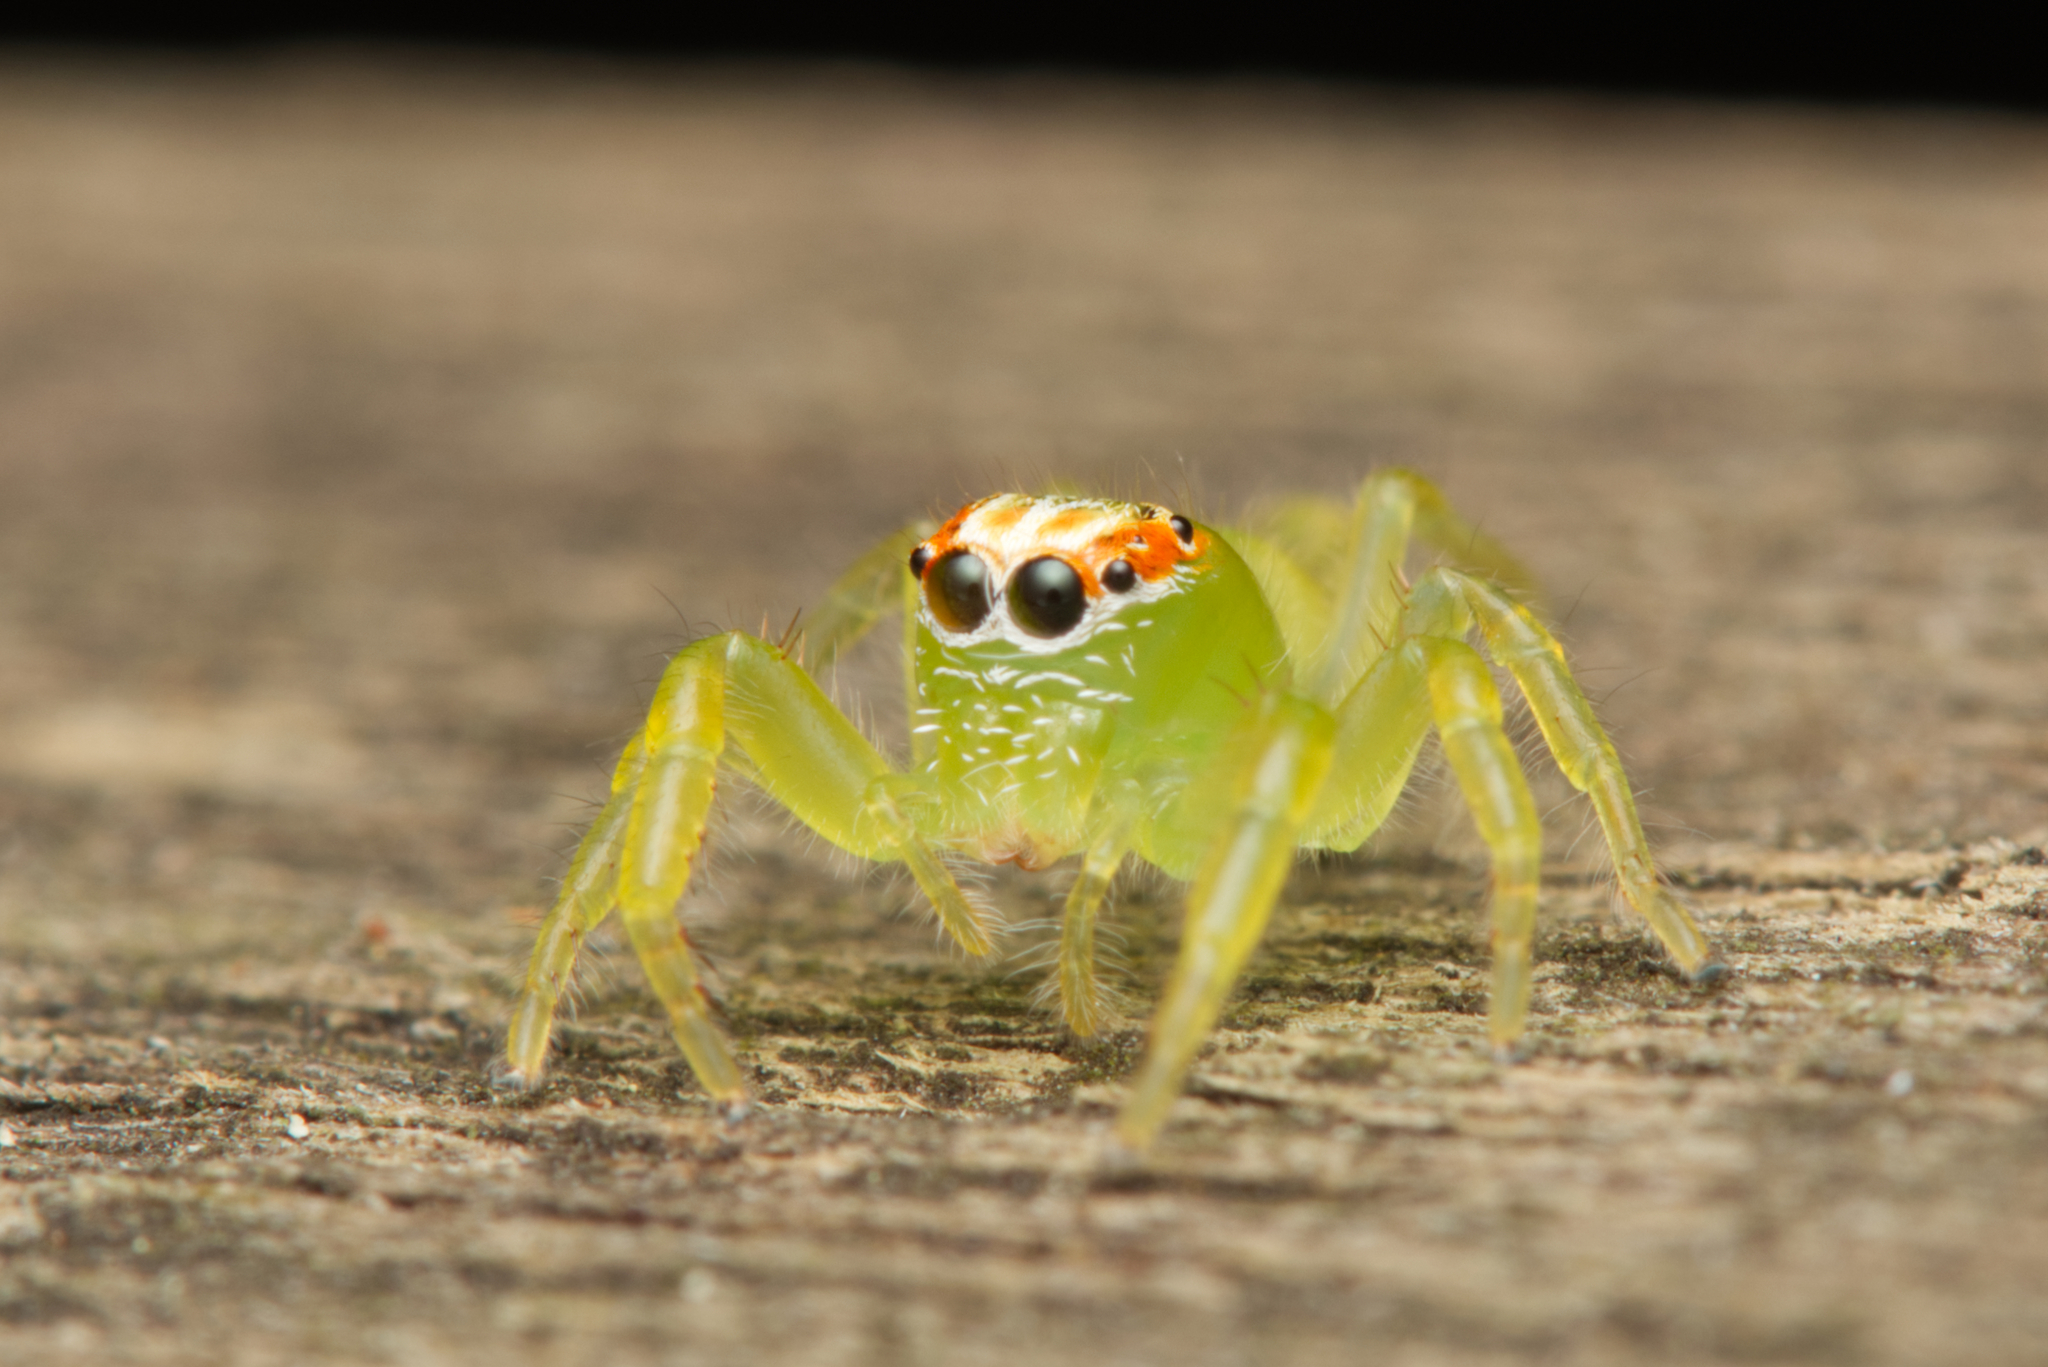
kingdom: Animalia
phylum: Arthropoda
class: Arachnida
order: Araneae
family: Salticidae
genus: Mopsus
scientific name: Mopsus mormon
